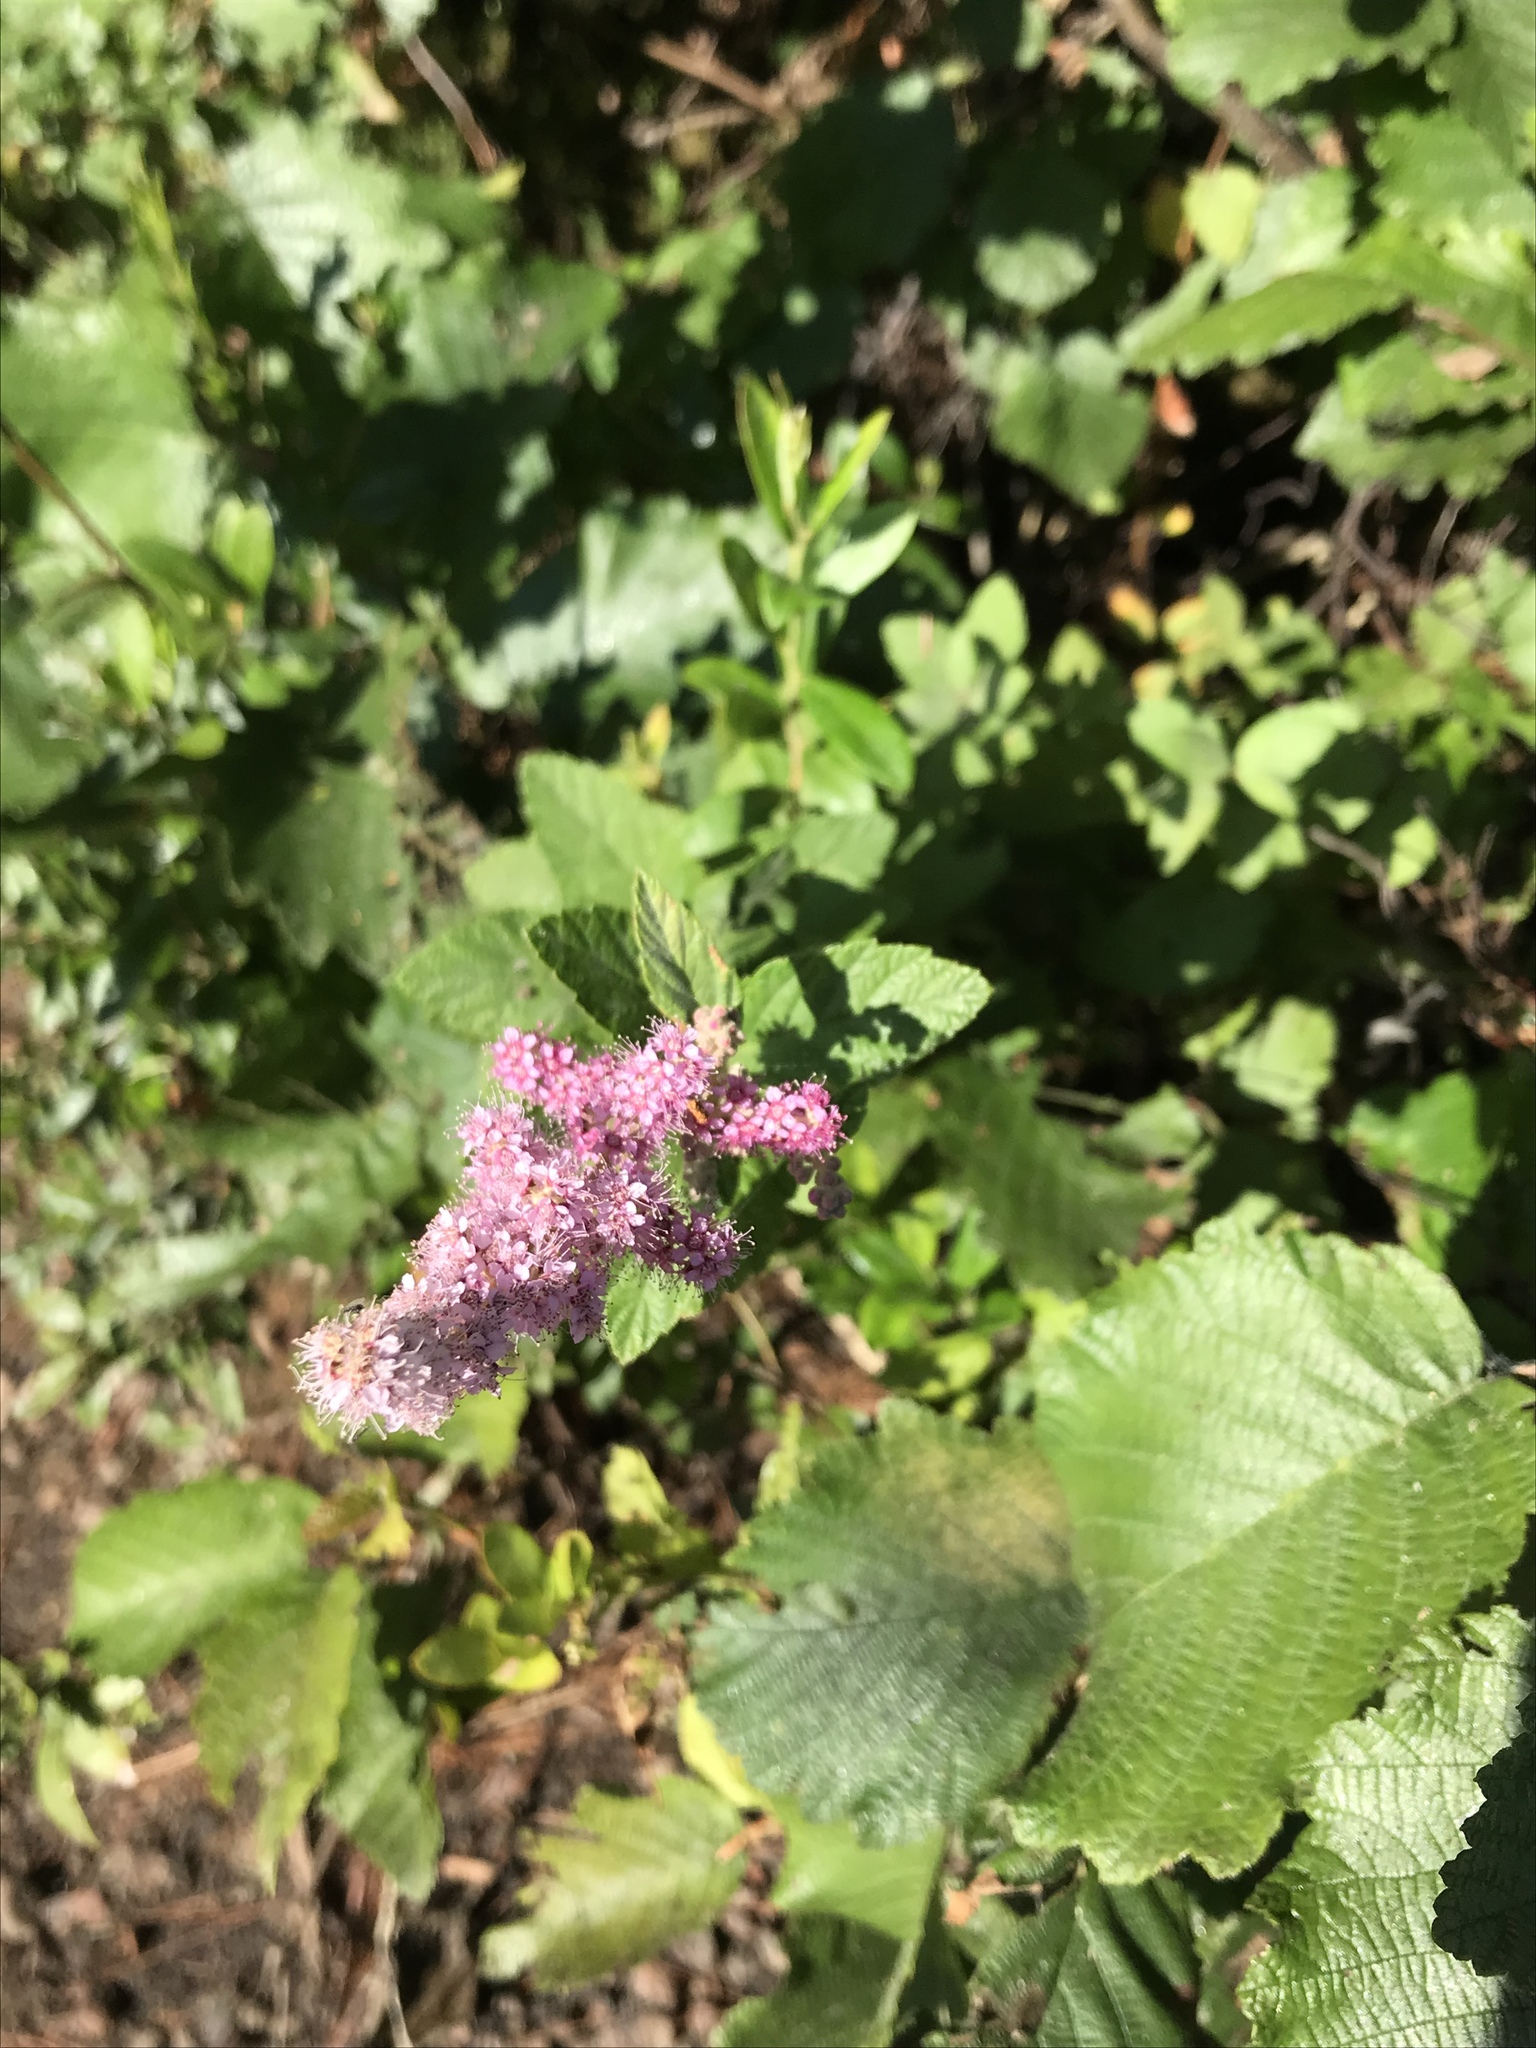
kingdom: Plantae
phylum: Tracheophyta
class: Magnoliopsida
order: Rosales
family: Rosaceae
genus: Spiraea
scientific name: Spiraea tomentosa
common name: Hardhack
